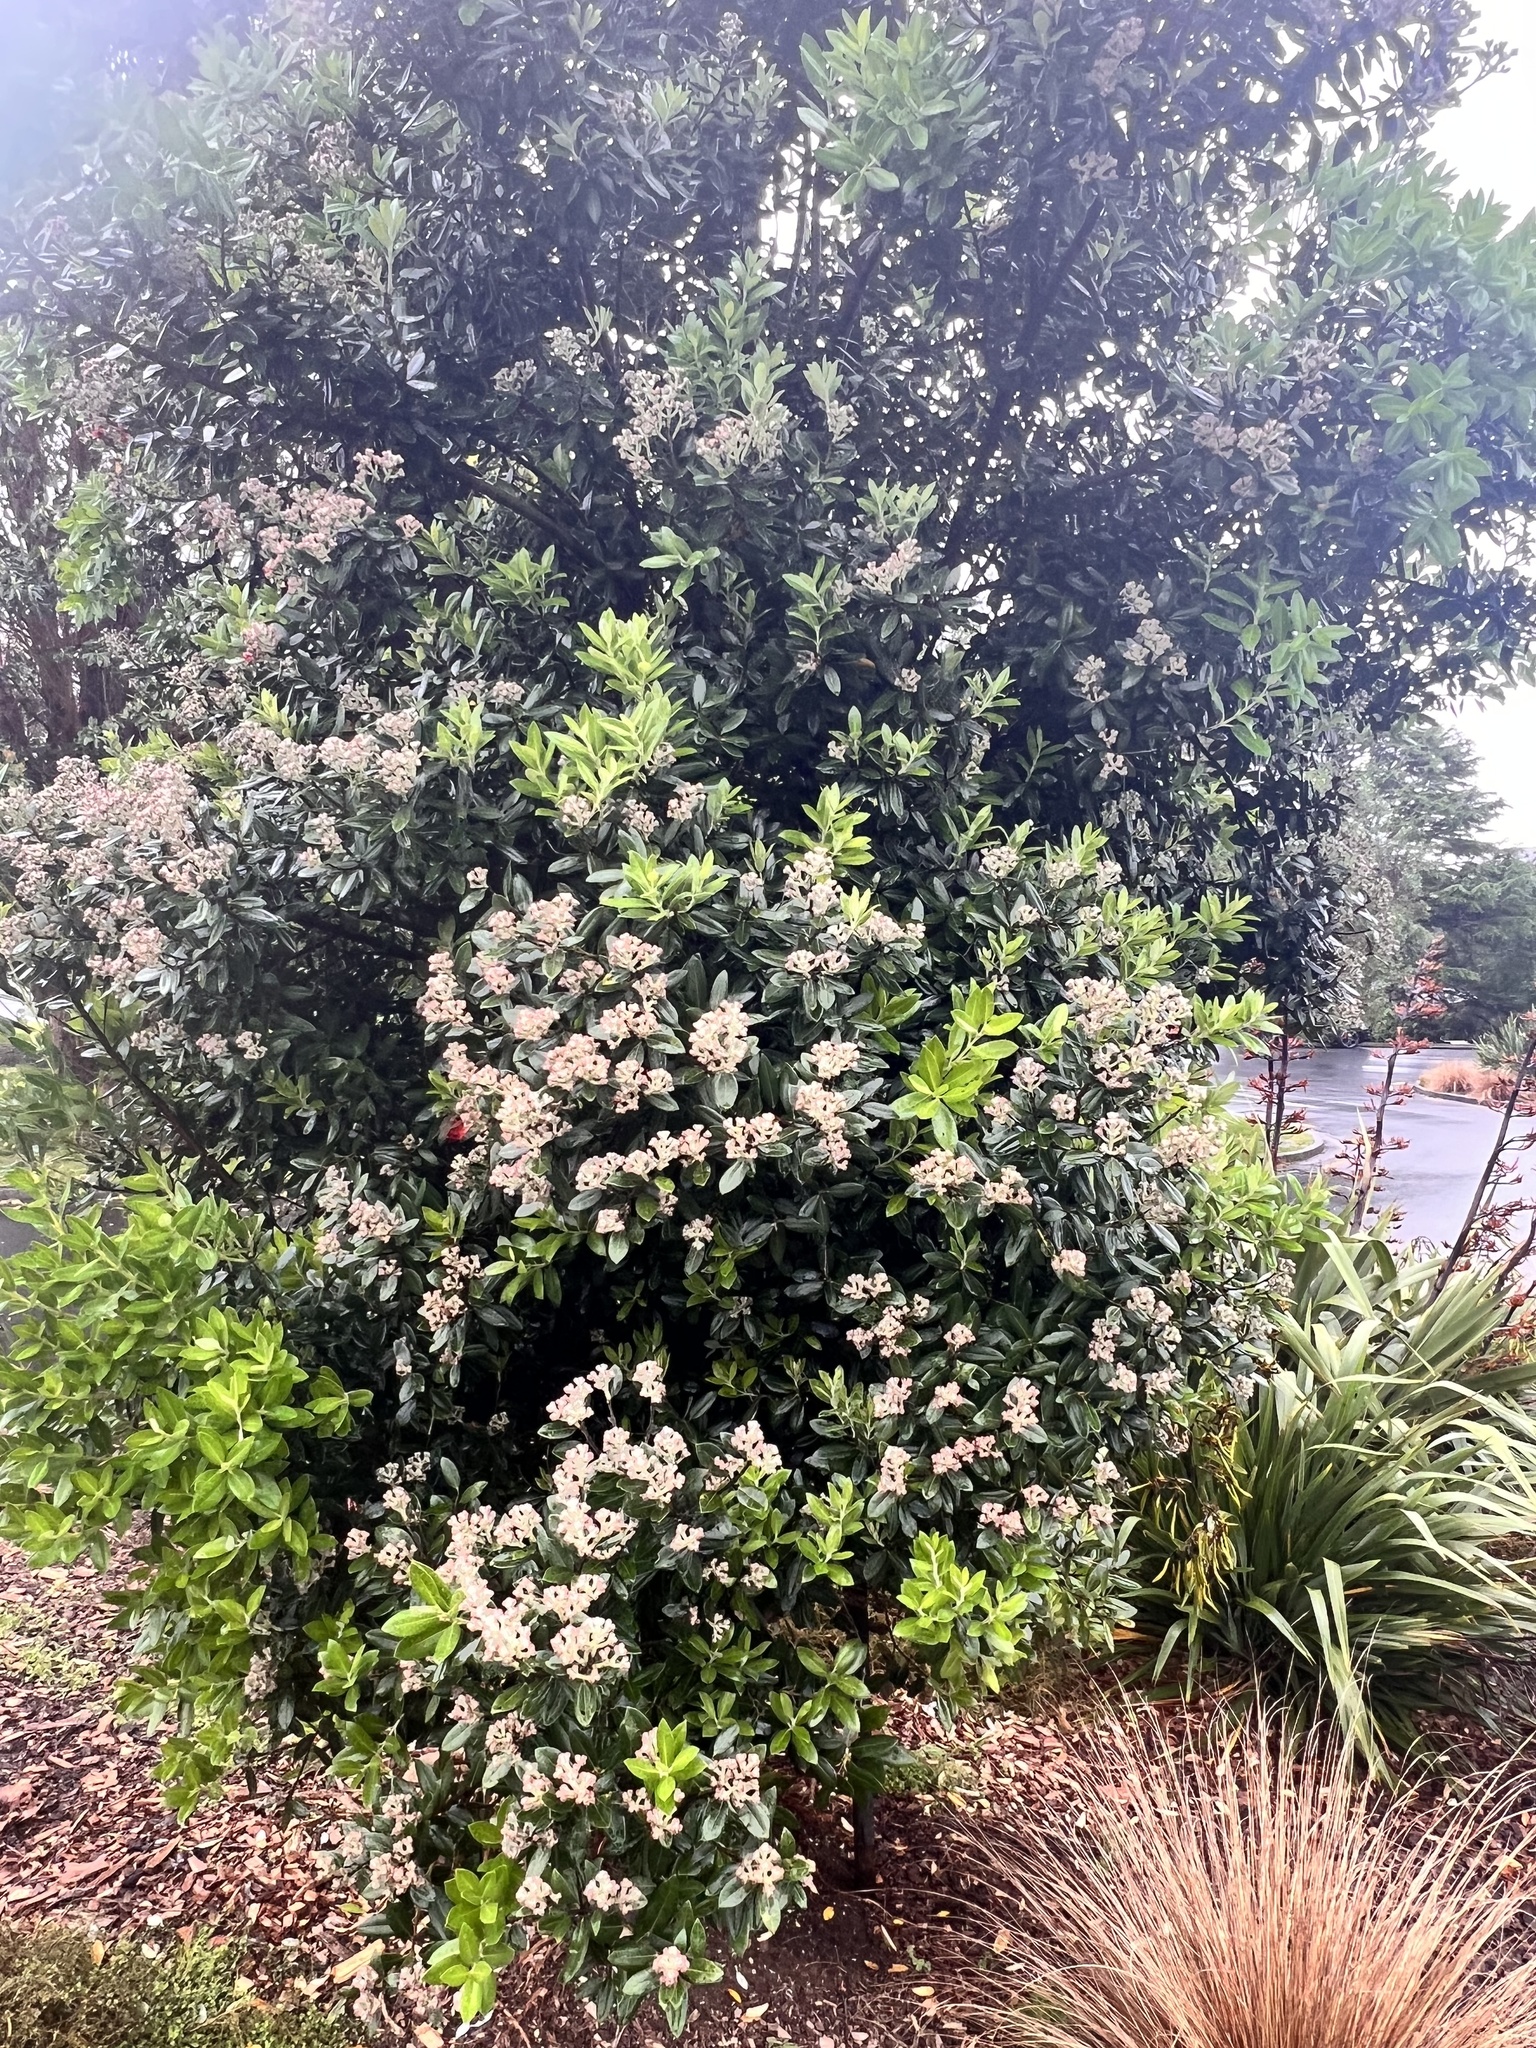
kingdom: Plantae
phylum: Tracheophyta
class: Magnoliopsida
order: Myrtales
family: Myrtaceae
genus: Metrosideros
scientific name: Metrosideros excelsa
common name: New zealand christmastree
